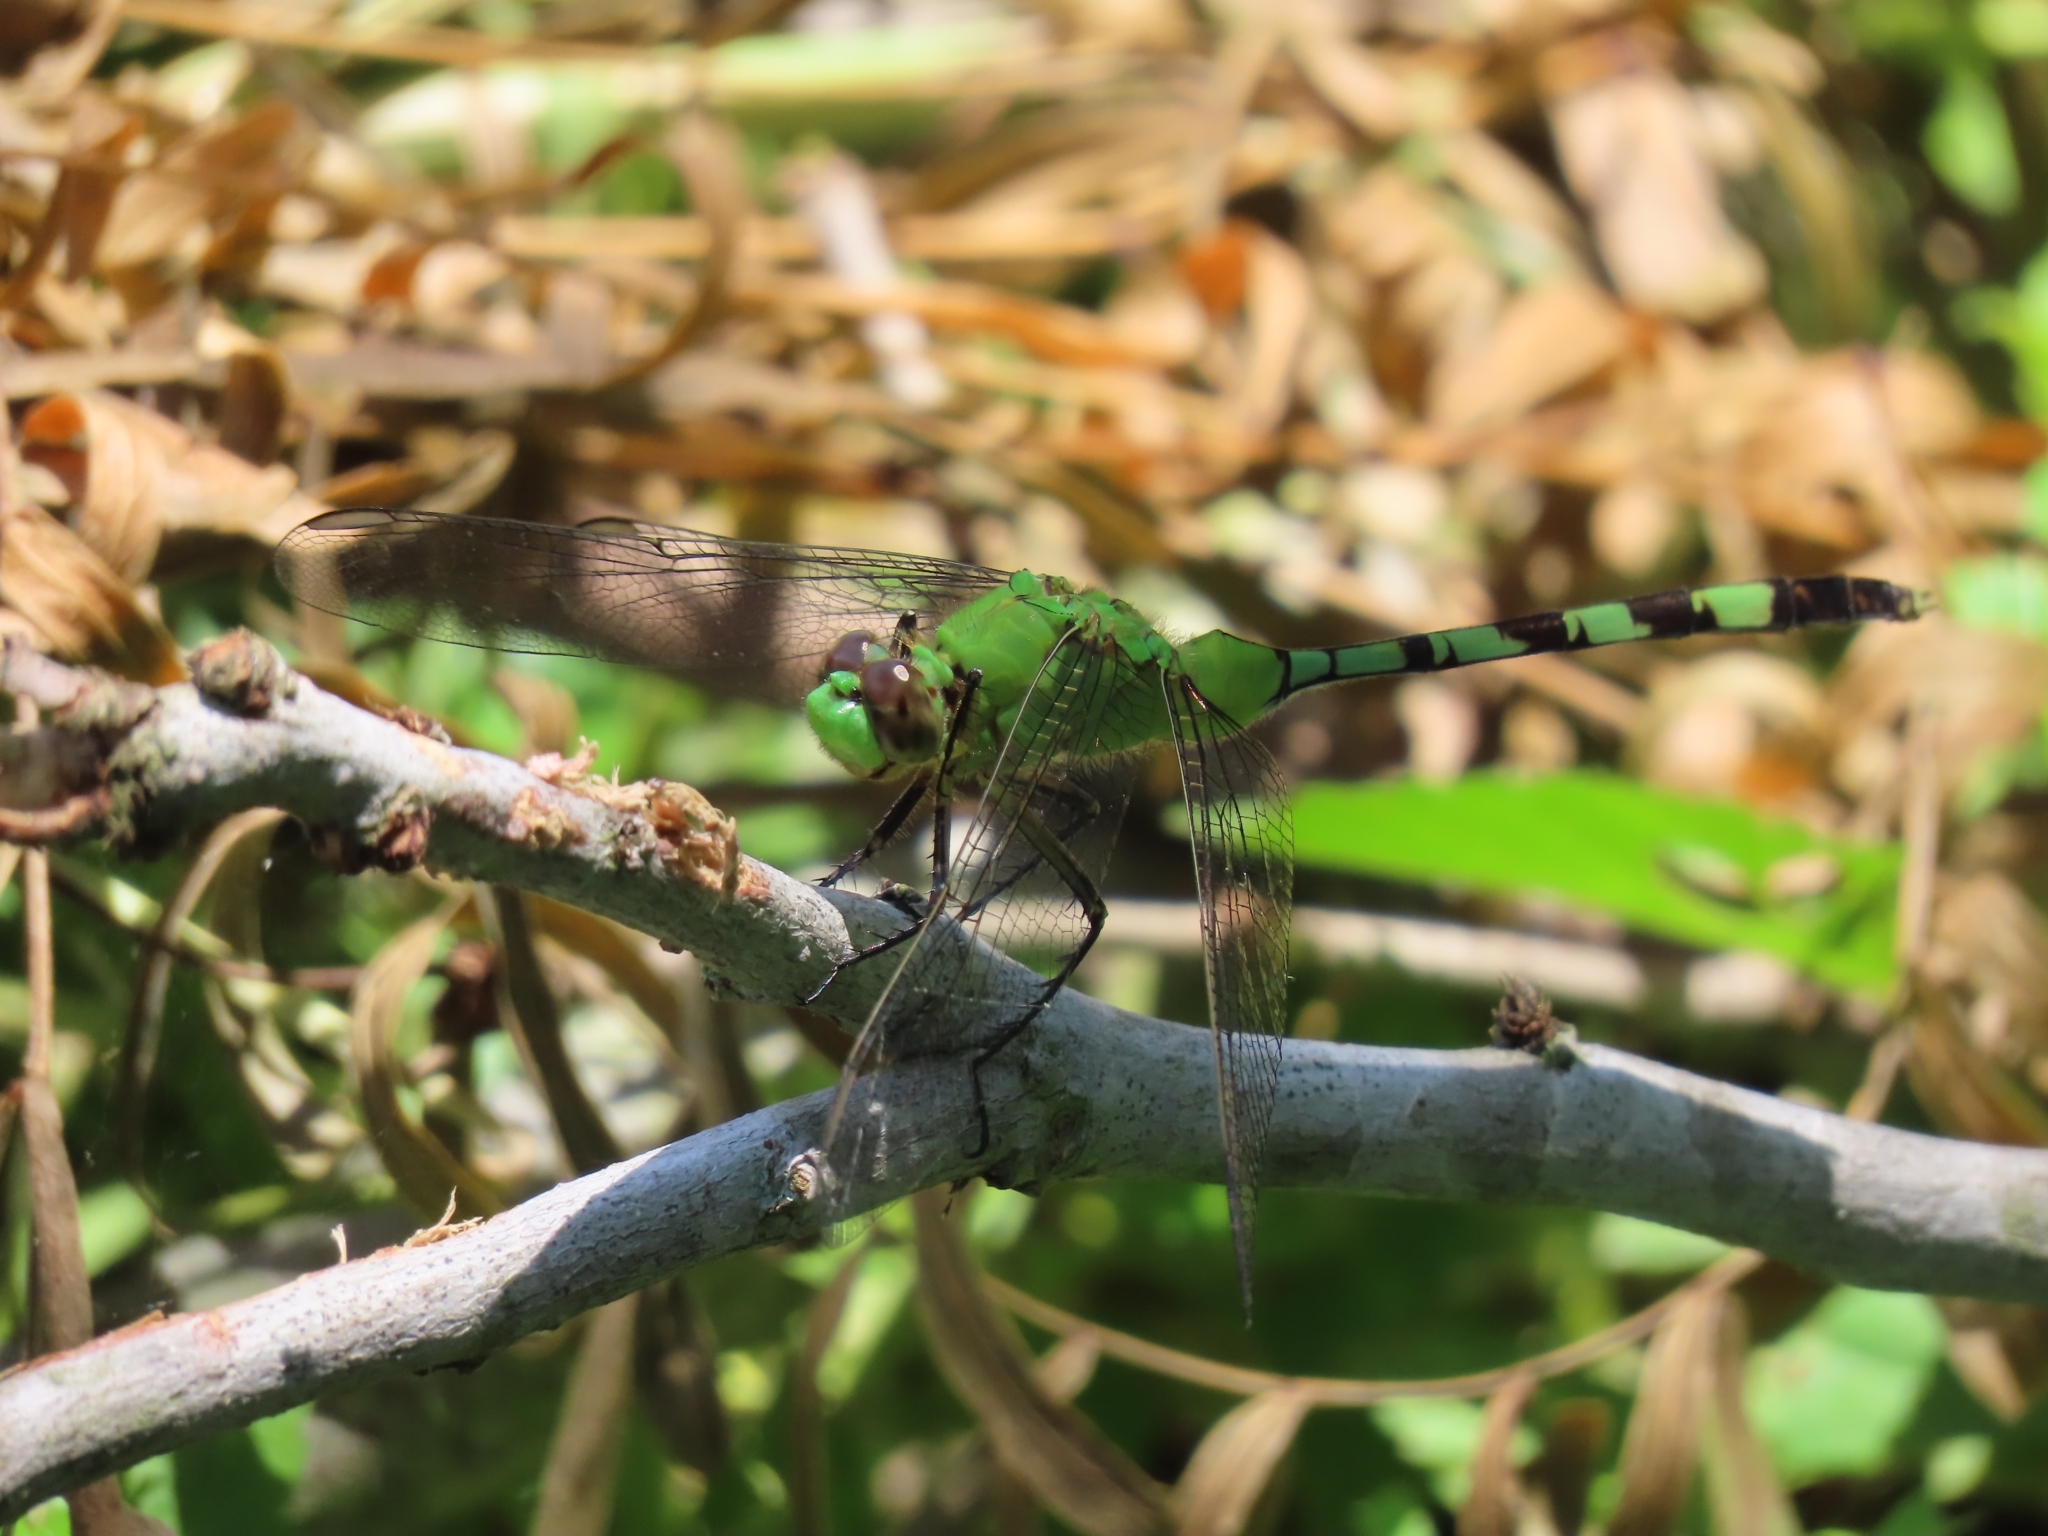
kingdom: Animalia
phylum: Arthropoda
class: Insecta
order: Odonata
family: Libellulidae
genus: Erythemis
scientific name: Erythemis vesiculosa
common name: Great pondhawk
